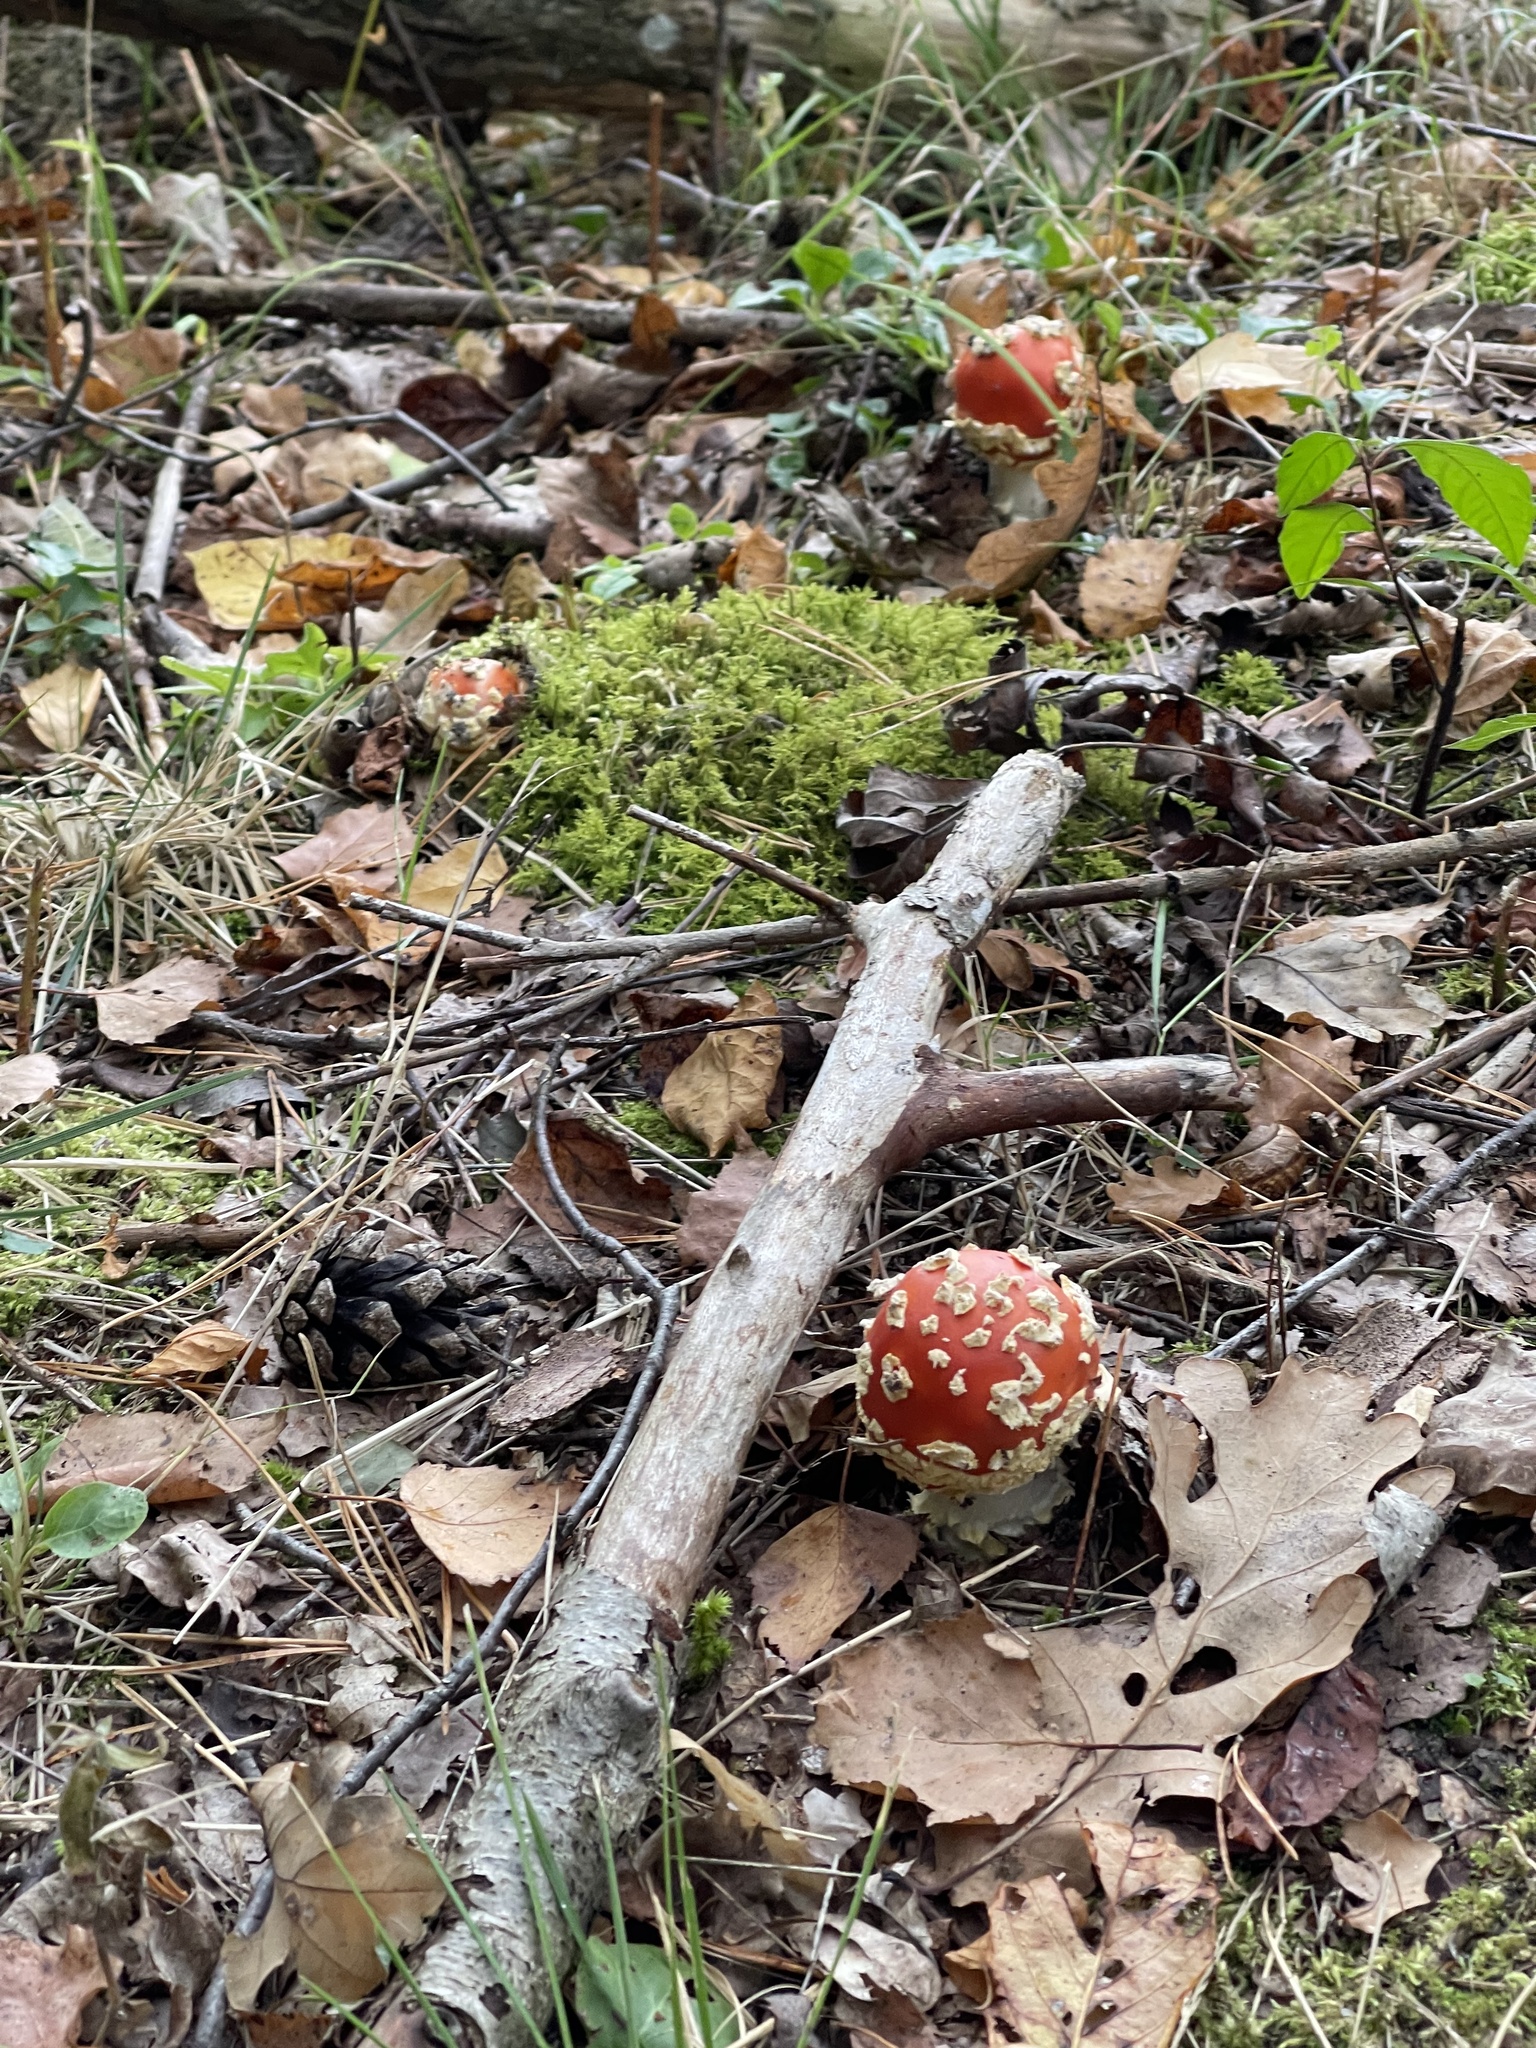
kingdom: Fungi
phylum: Basidiomycota
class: Agaricomycetes
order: Agaricales
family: Amanitaceae
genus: Amanita
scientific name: Amanita muscaria
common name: Fly agaric
